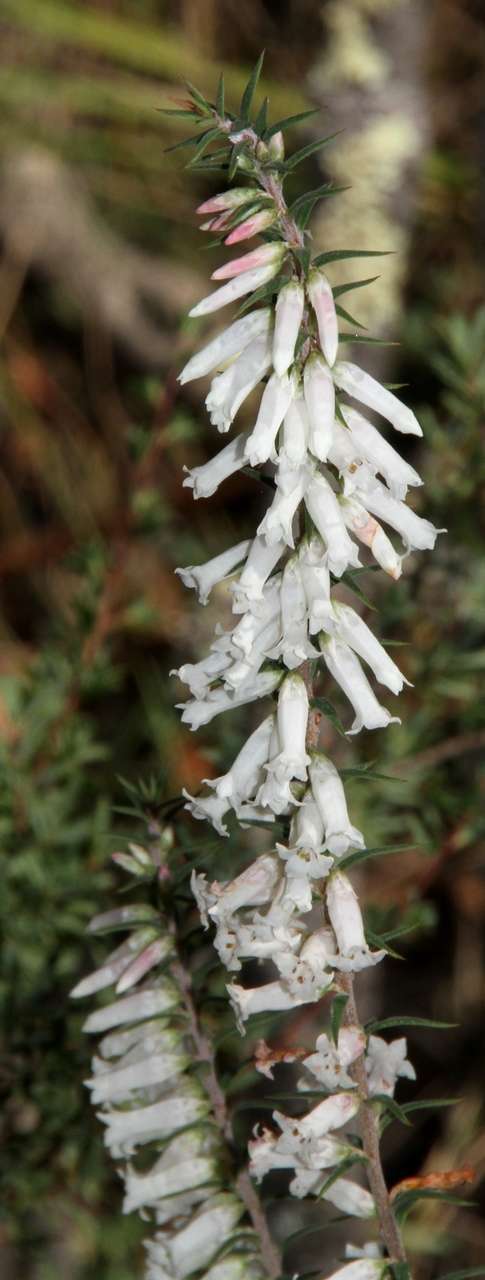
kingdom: Plantae
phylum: Tracheophyta
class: Magnoliopsida
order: Ericales
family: Ericaceae
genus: Epacris
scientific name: Epacris impressa
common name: Common-heath
